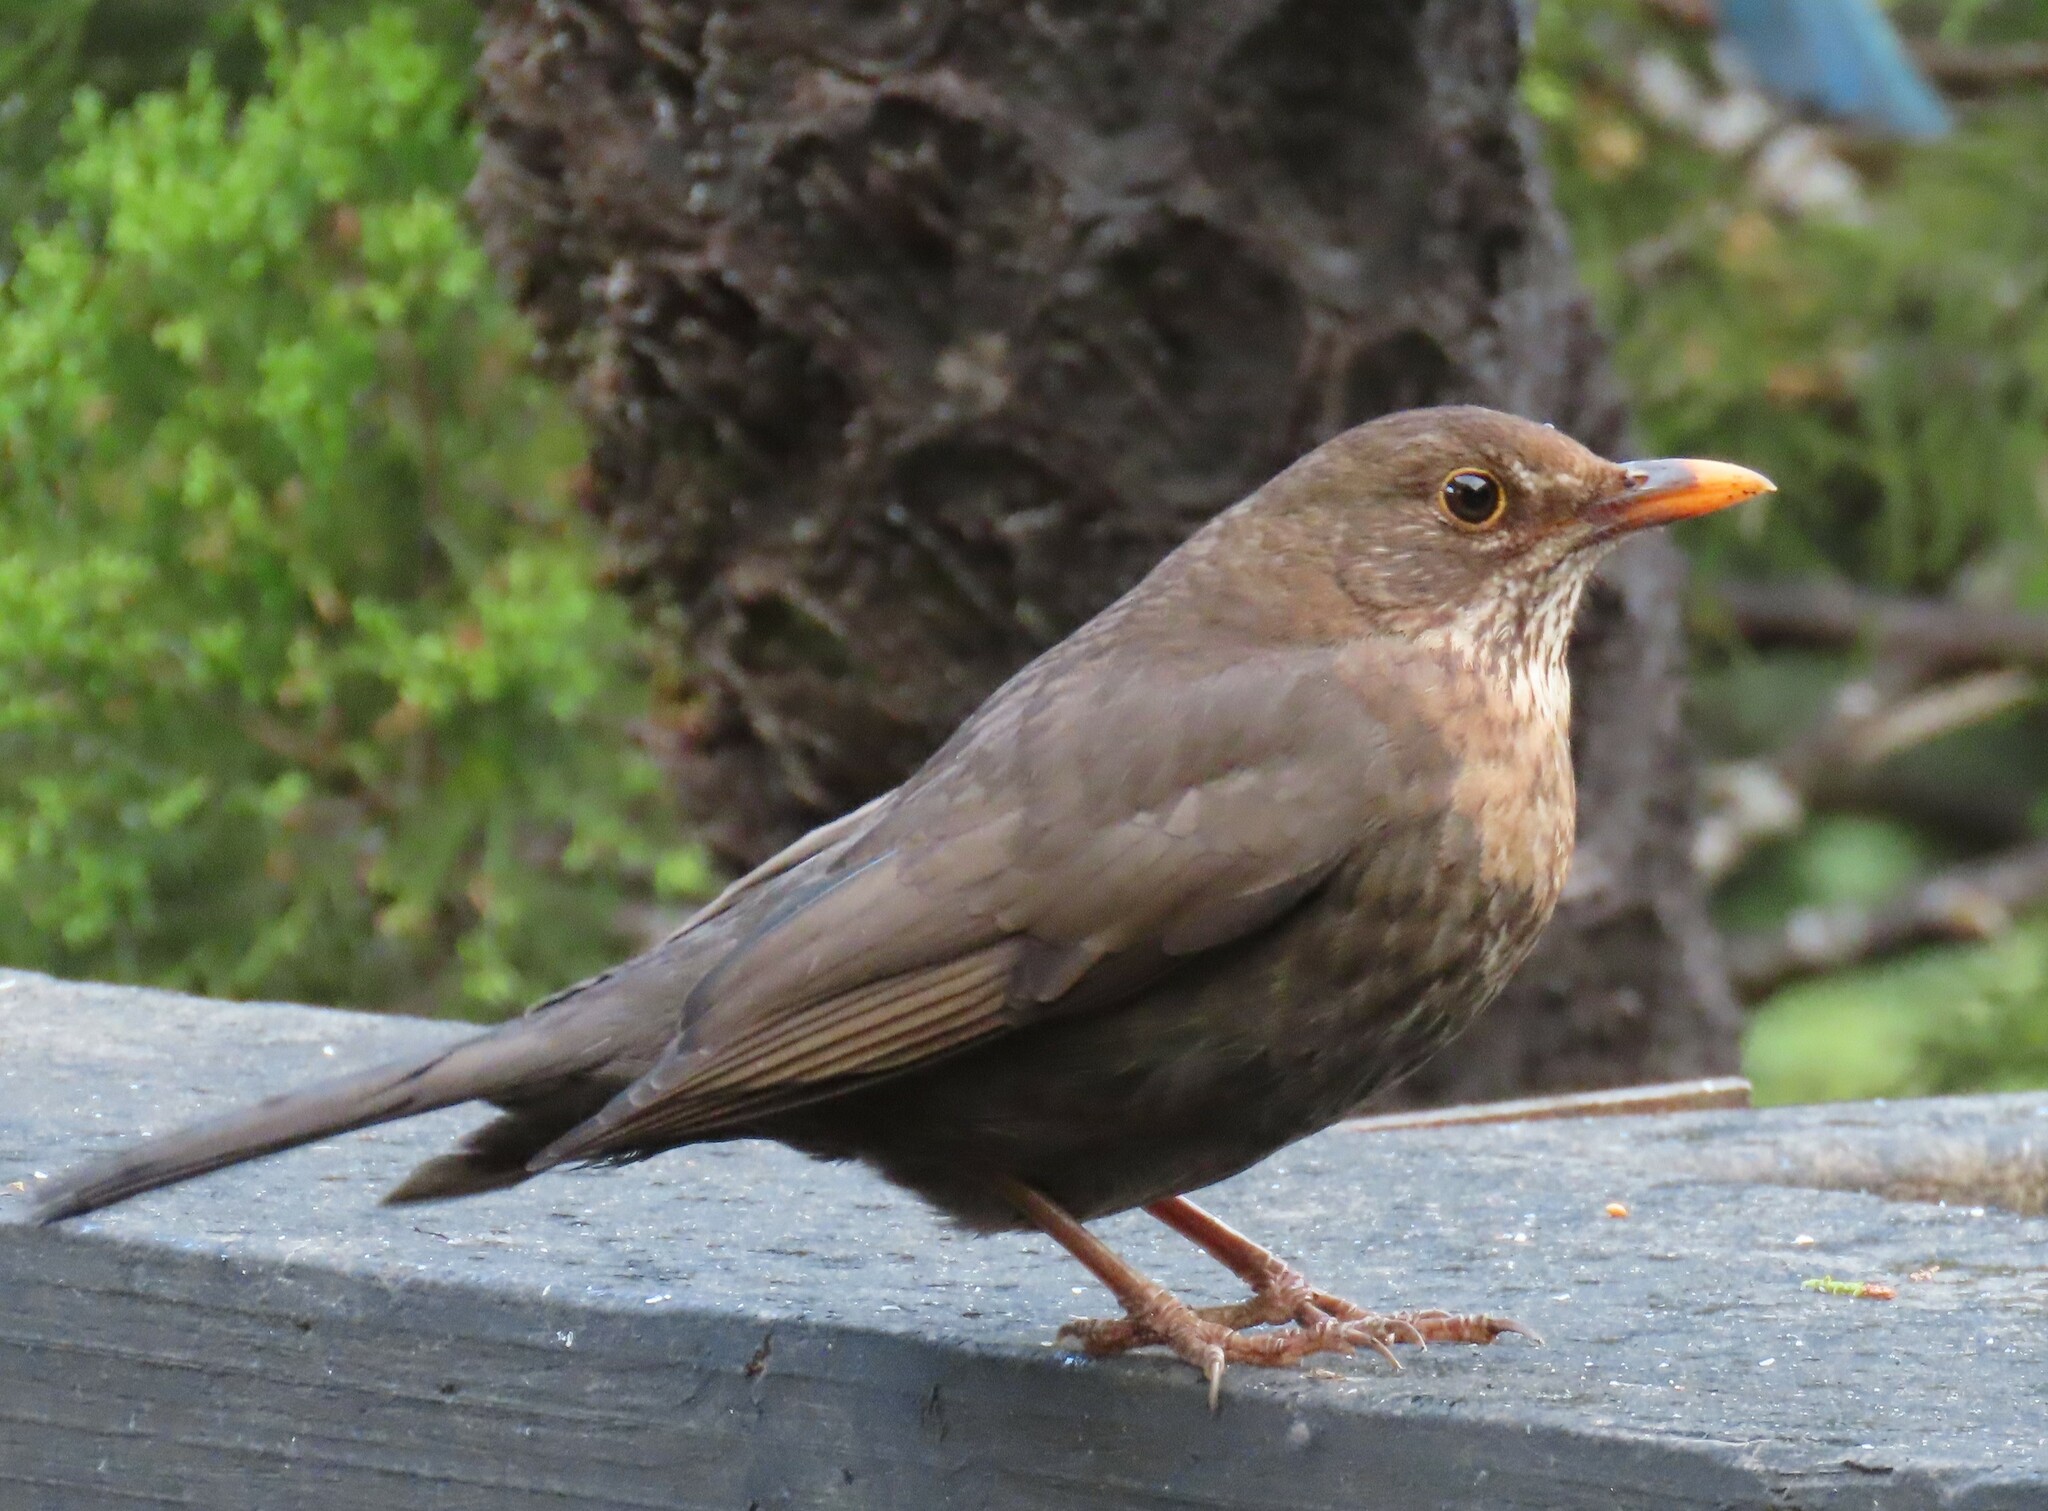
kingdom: Animalia
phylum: Chordata
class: Aves
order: Passeriformes
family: Turdidae
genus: Turdus
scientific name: Turdus merula
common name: Common blackbird
